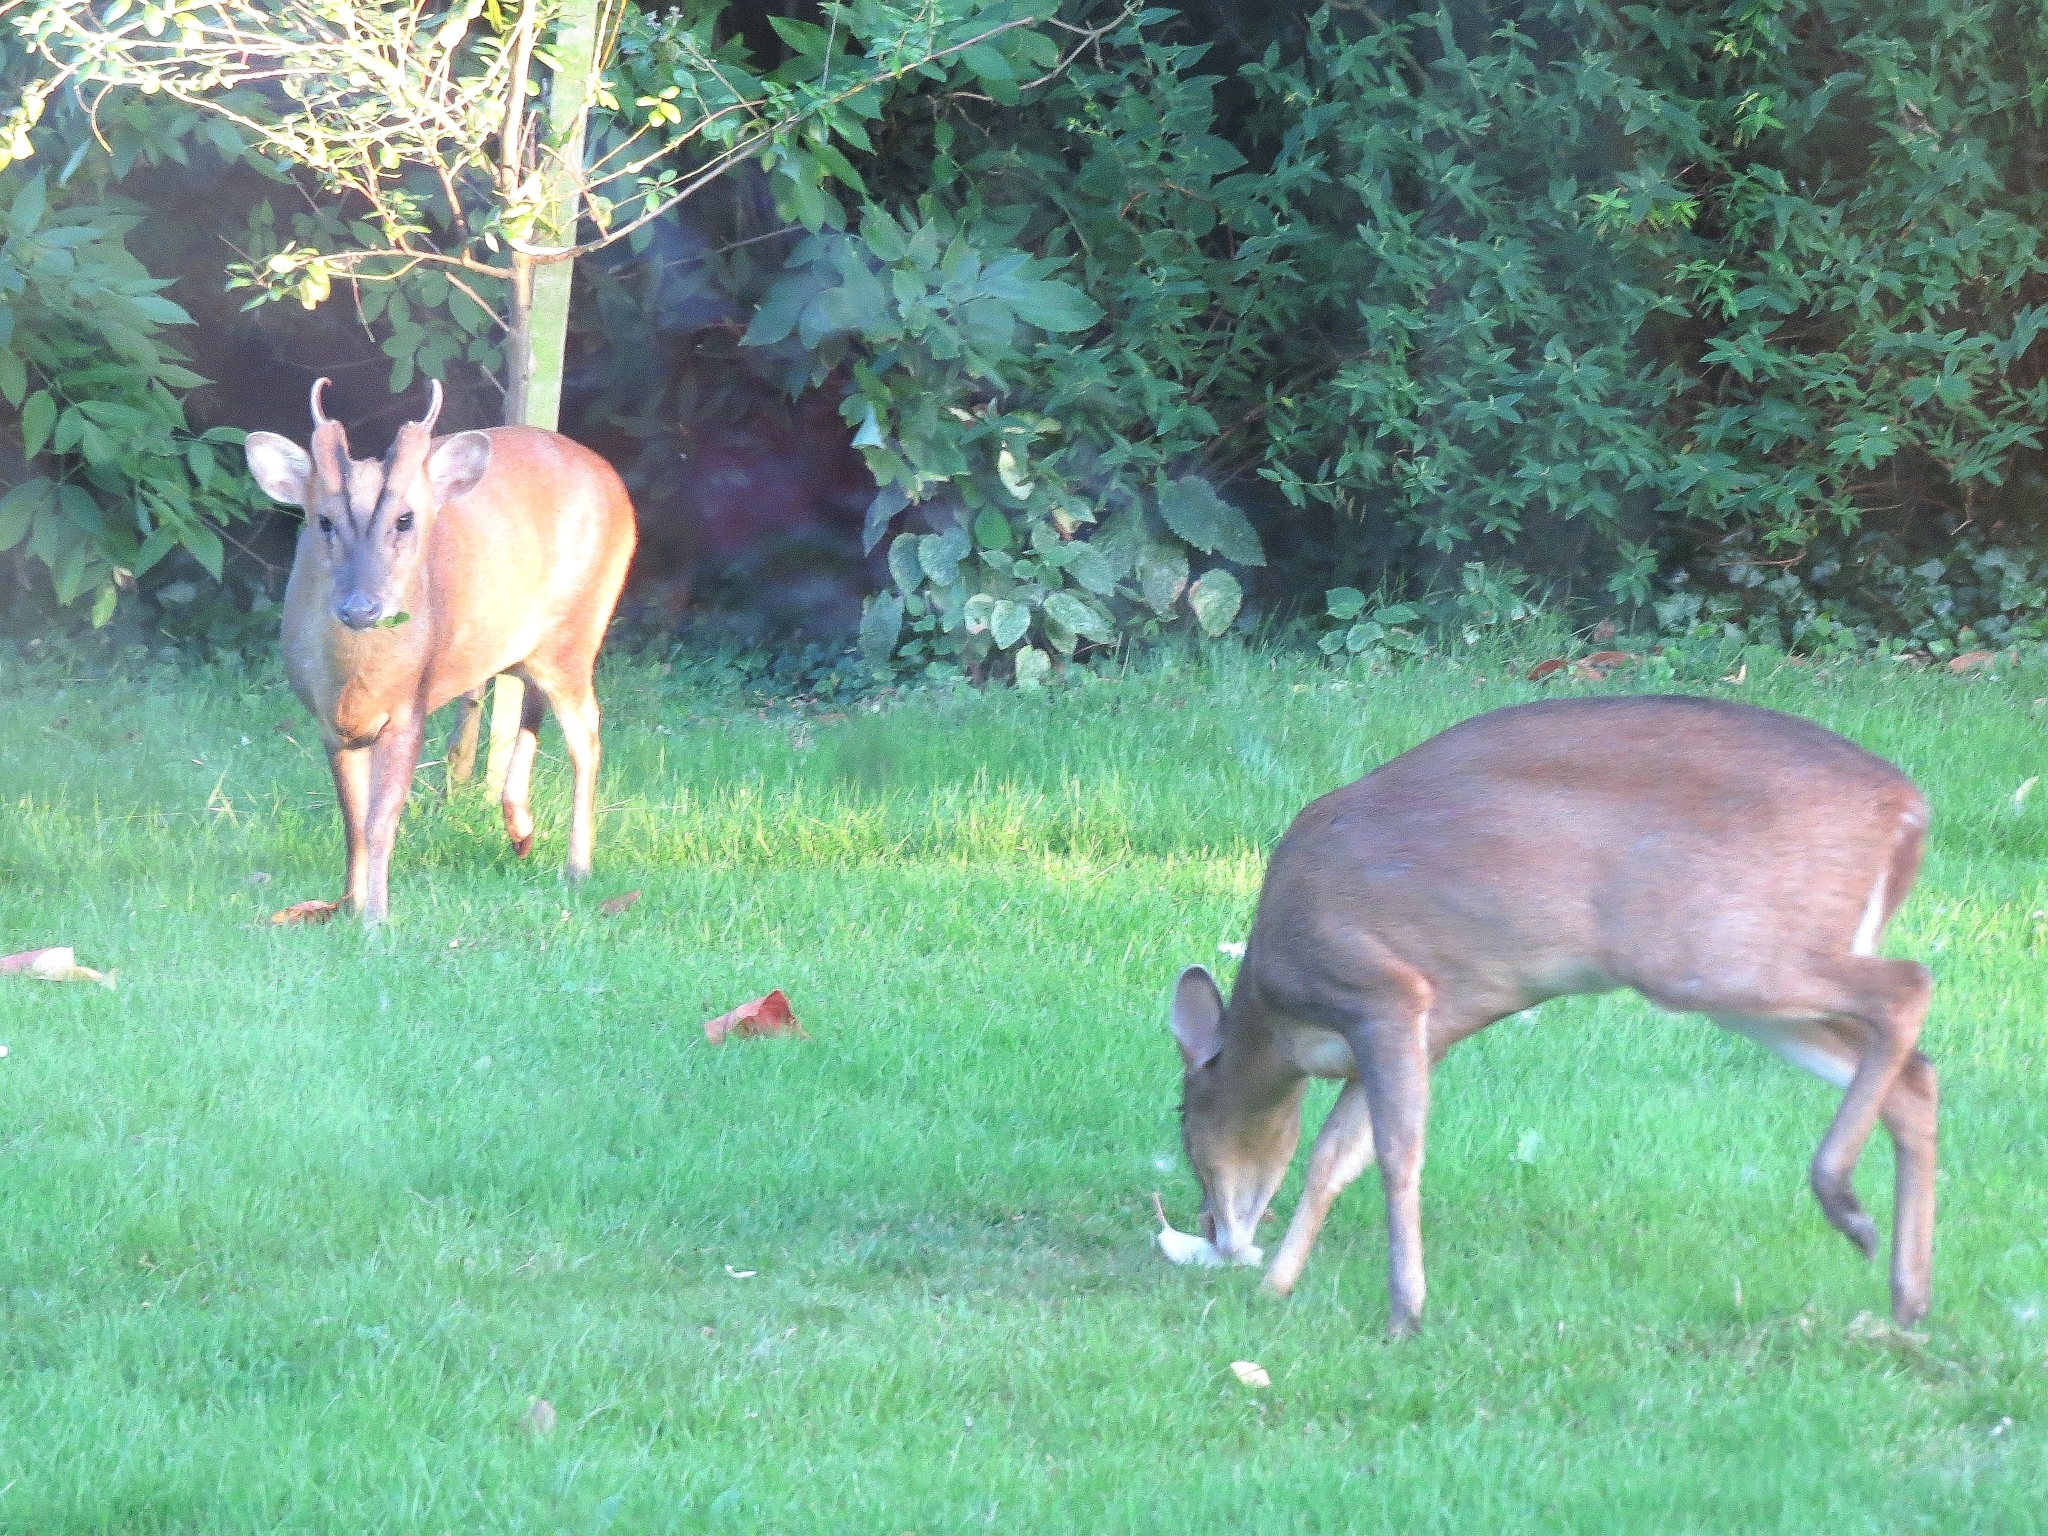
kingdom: Animalia
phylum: Chordata
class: Mammalia
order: Artiodactyla
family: Cervidae
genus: Muntiacus
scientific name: Muntiacus reevesi
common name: Reeves' muntjac
